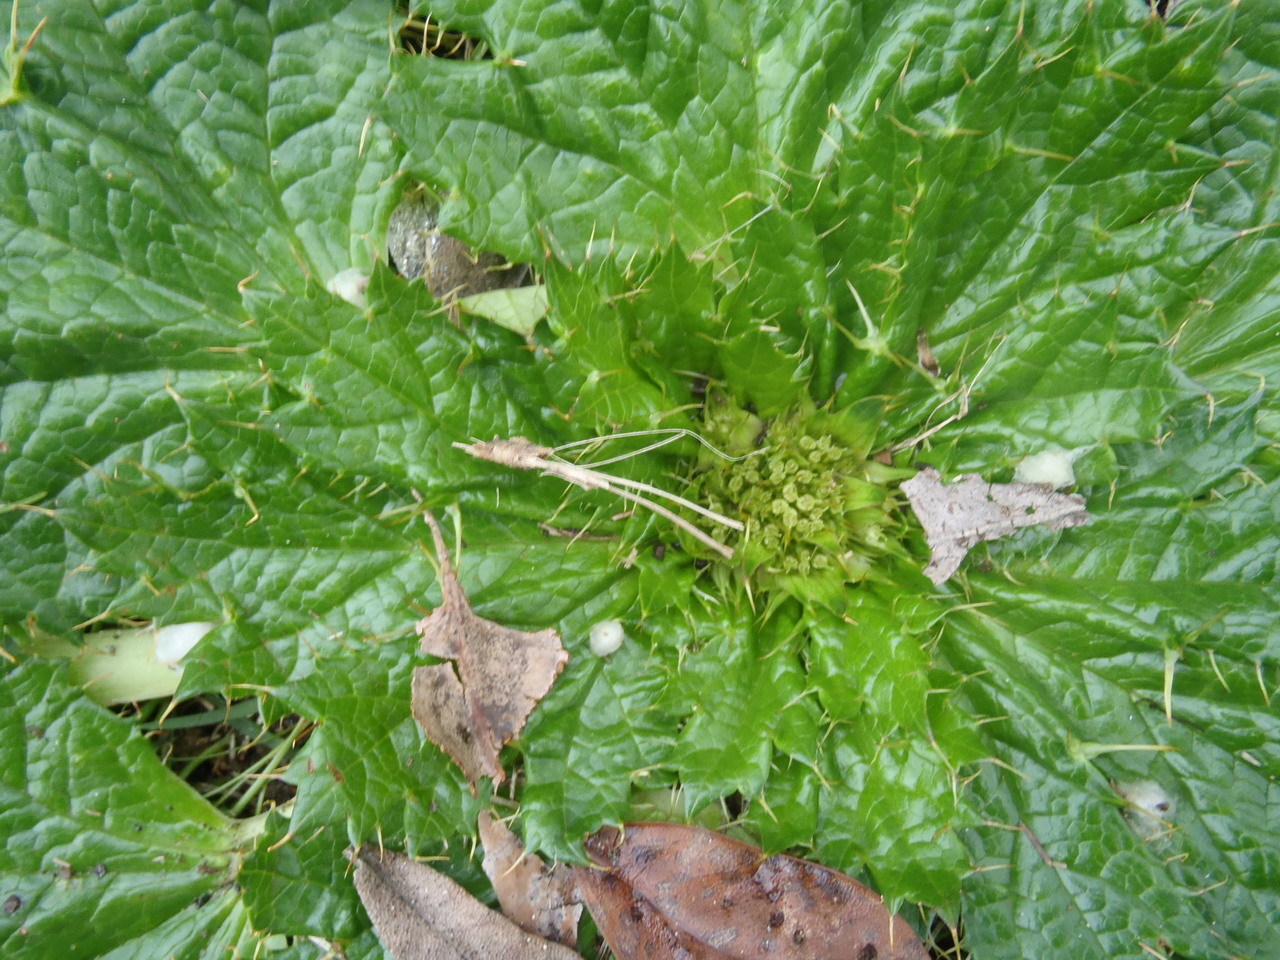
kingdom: Plantae
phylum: Tracheophyta
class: Magnoliopsida
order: Apiales
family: Apiaceae
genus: Arctopus
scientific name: Arctopus echinatus
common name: Platdoring
